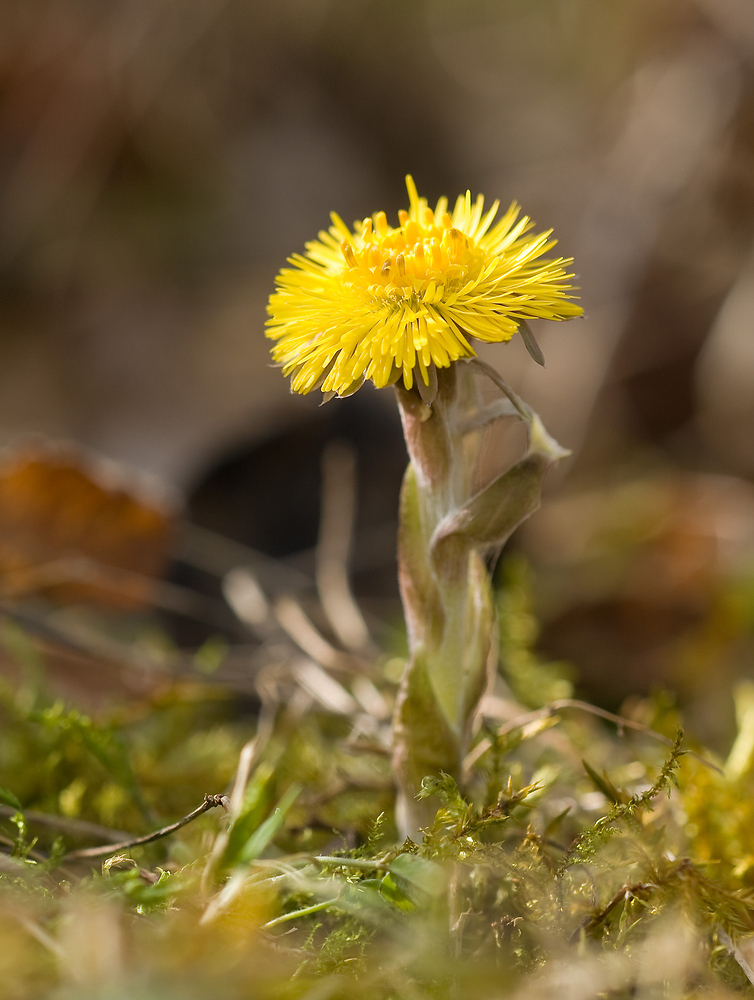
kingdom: Plantae
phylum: Tracheophyta
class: Magnoliopsida
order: Asterales
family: Asteraceae
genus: Tussilago
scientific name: Tussilago farfara
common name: Coltsfoot
